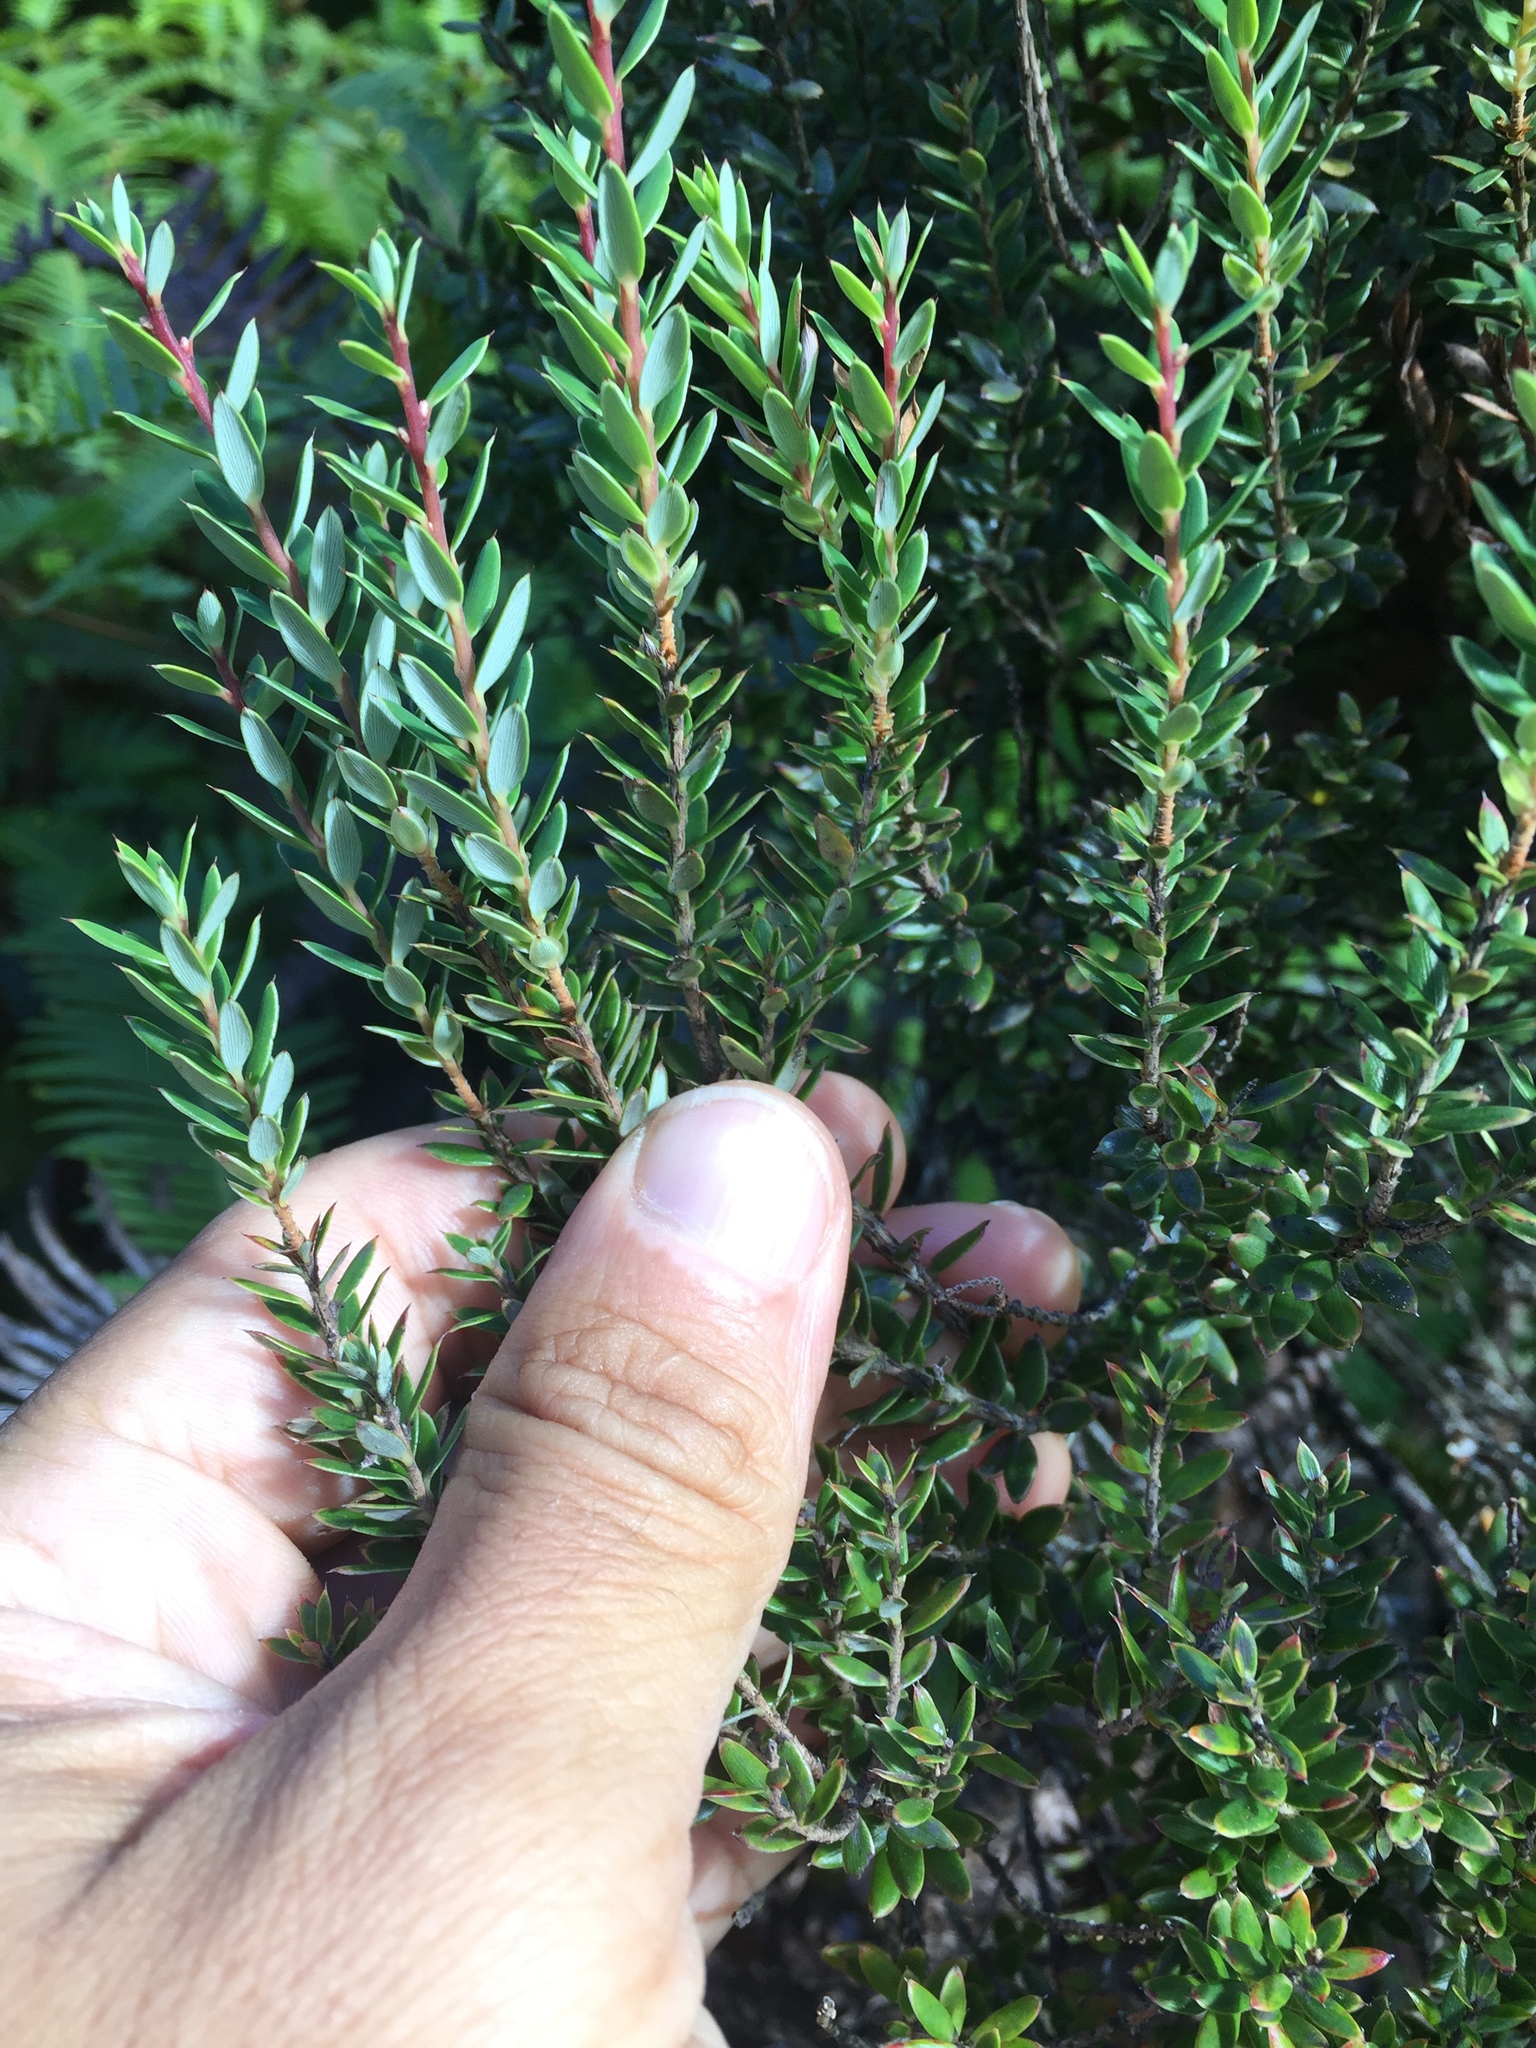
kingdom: Plantae
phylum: Tracheophyta
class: Magnoliopsida
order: Ericales
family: Ericaceae
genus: Leptecophylla
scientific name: Leptecophylla tameiameiae
